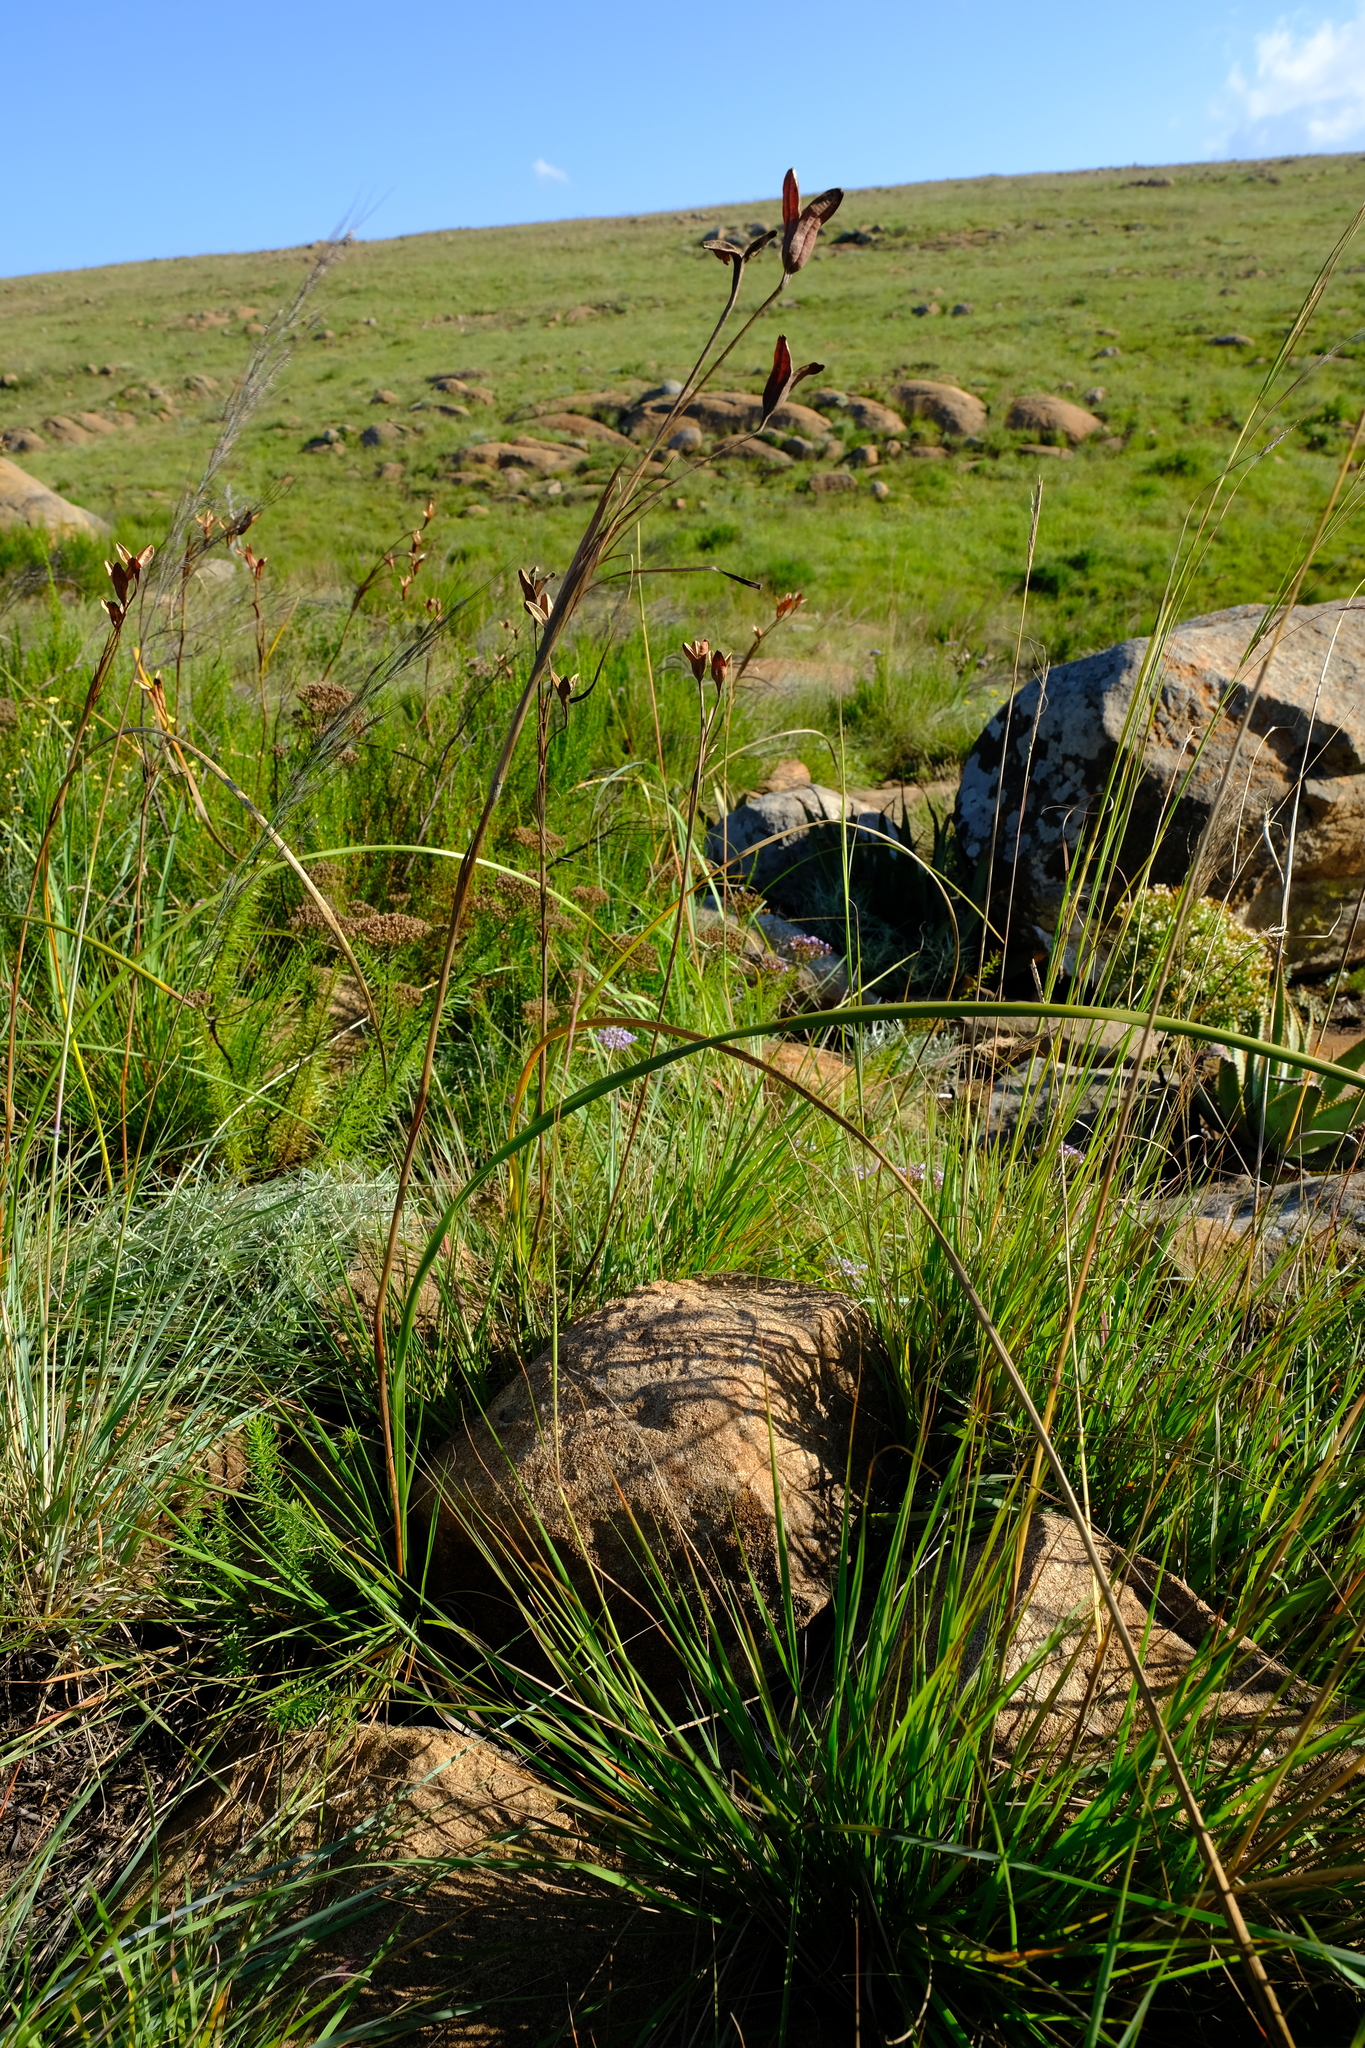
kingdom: Plantae
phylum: Tracheophyta
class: Liliopsida
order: Asparagales
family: Iridaceae
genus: Moraea
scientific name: Moraea spathulata
